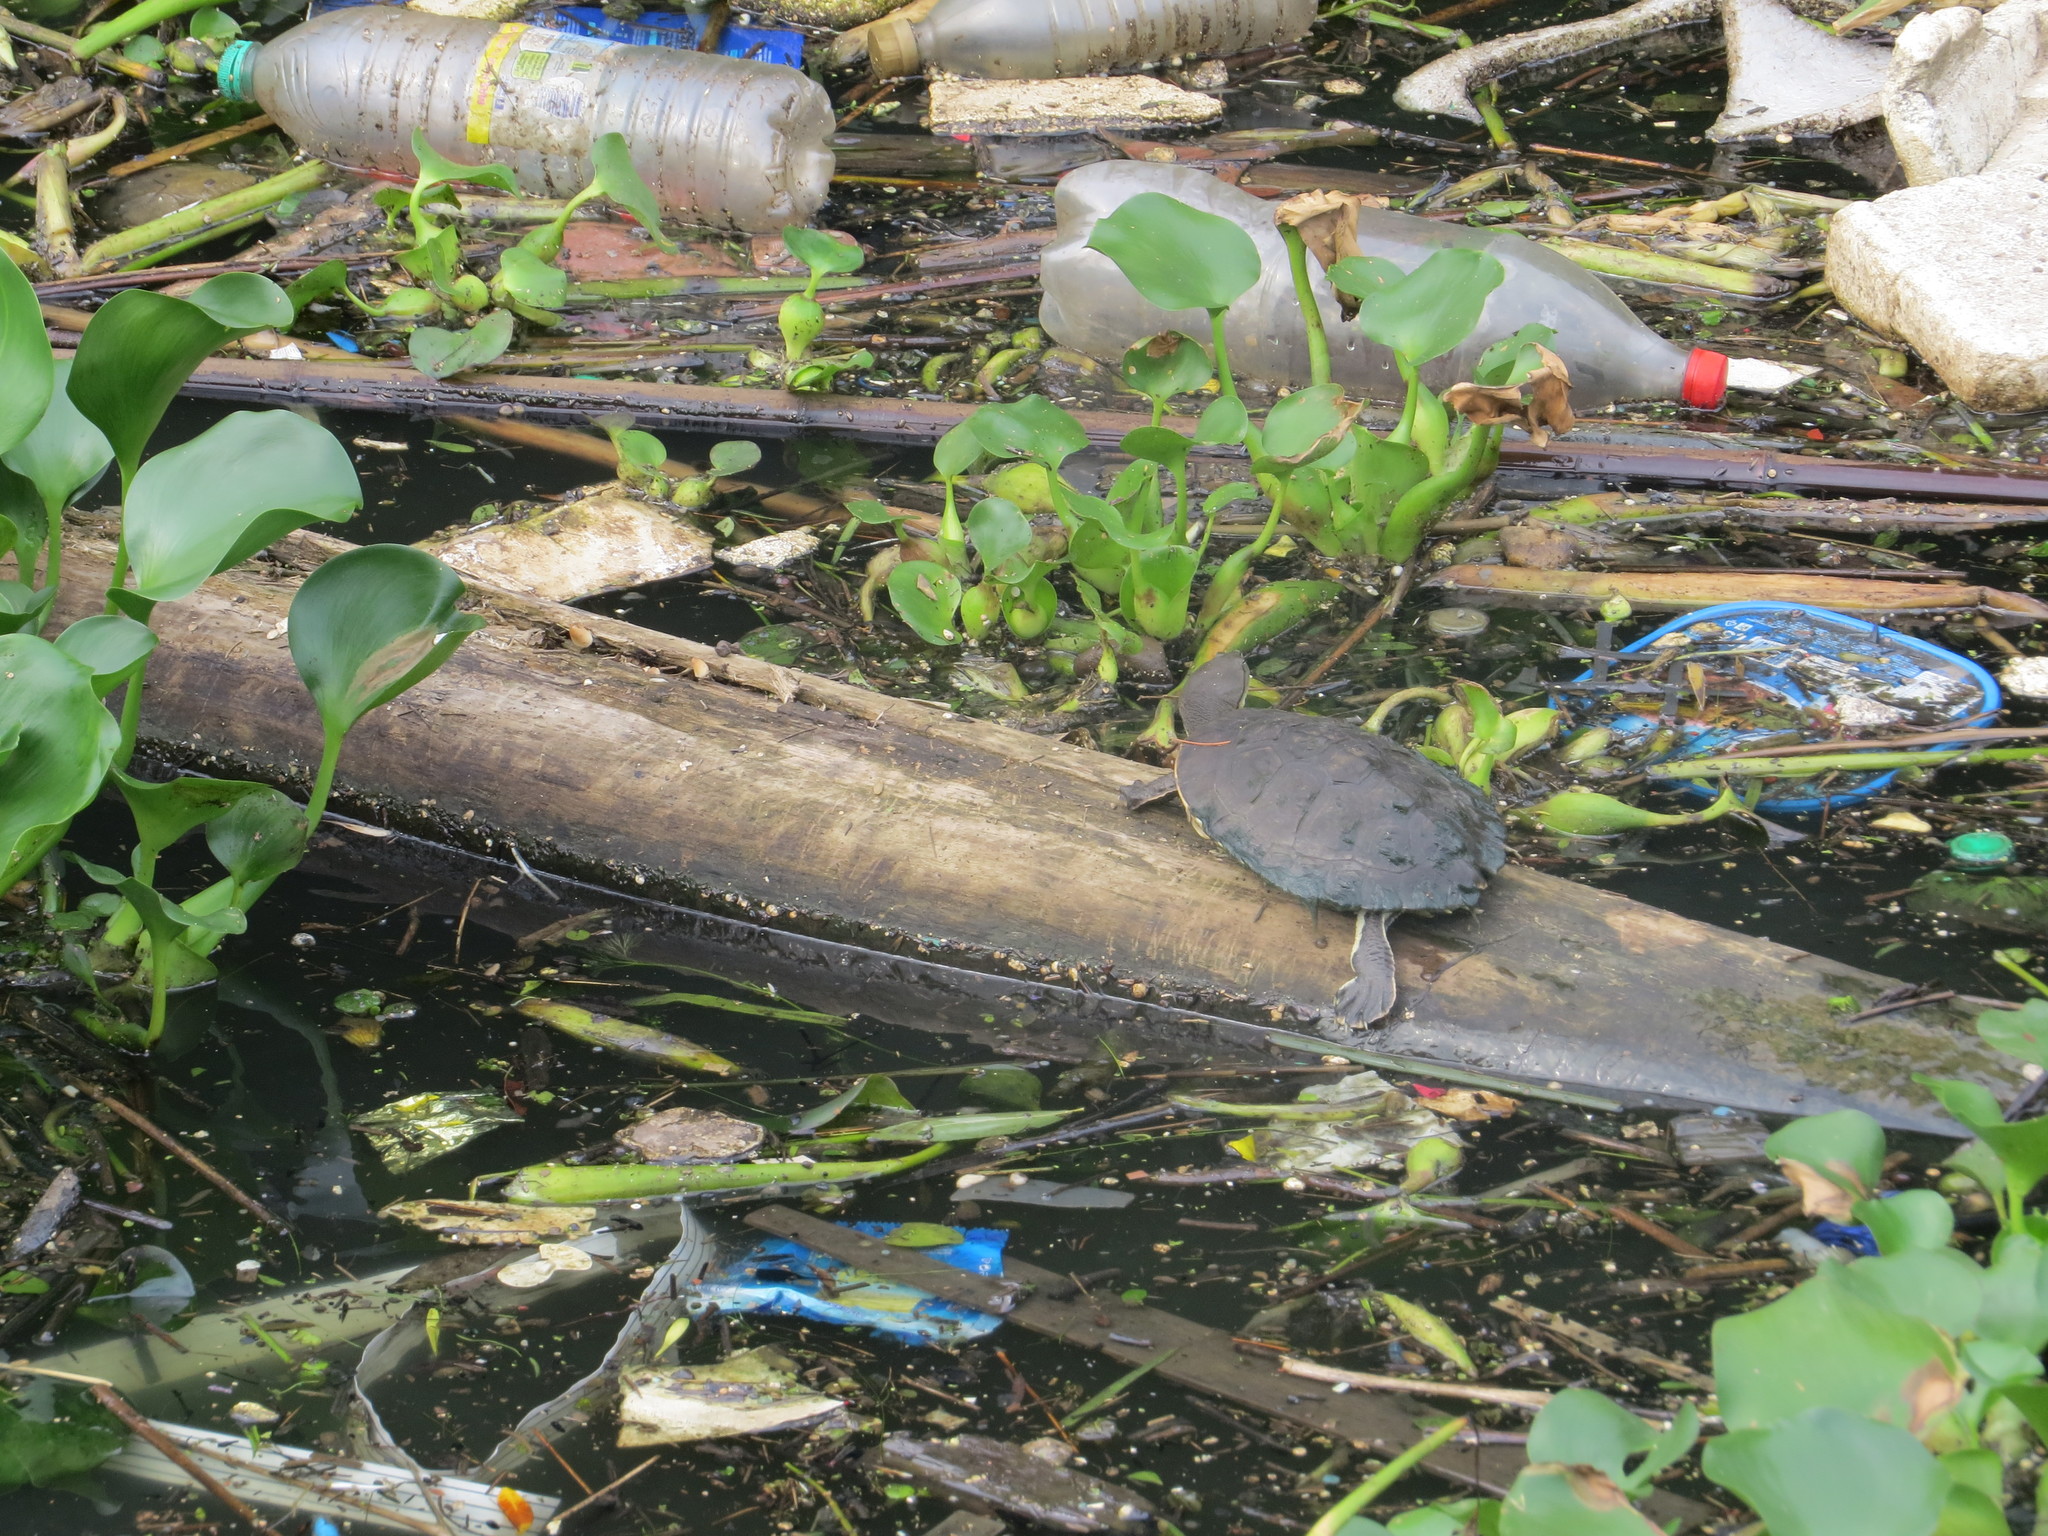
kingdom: Plantae
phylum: Tracheophyta
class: Liliopsida
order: Commelinales
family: Pontederiaceae
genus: Pontederia
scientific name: Pontederia crassipes
